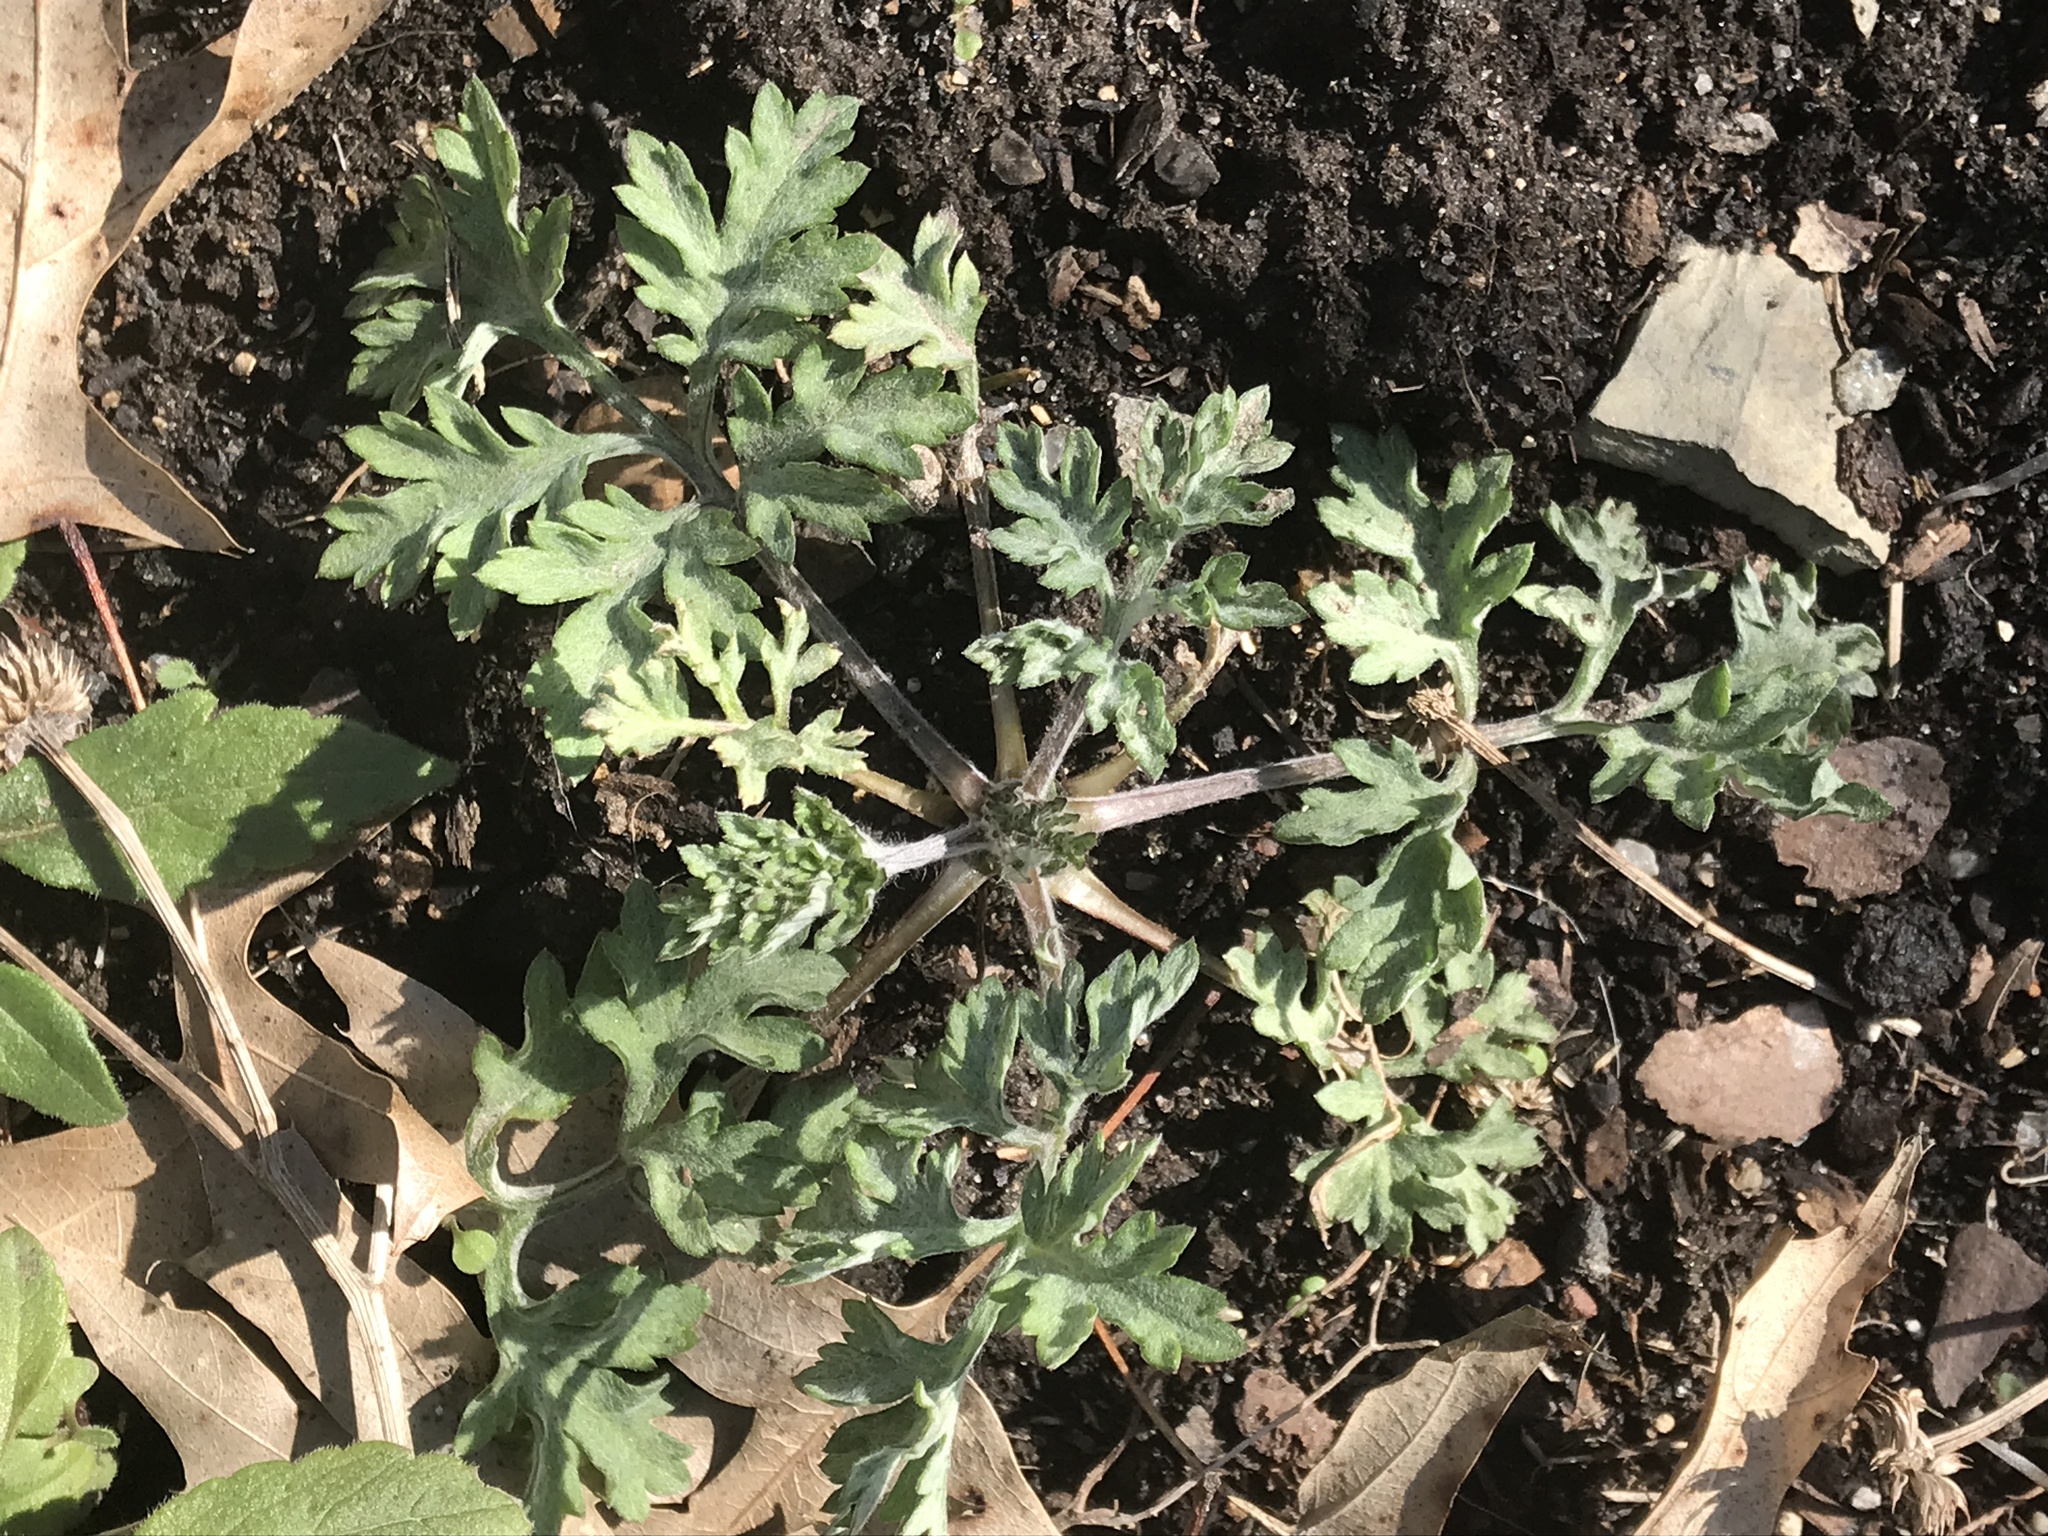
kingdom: Plantae
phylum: Tracheophyta
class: Magnoliopsida
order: Asterales
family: Asteraceae
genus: Artemisia
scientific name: Artemisia vulgaris
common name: Mugwort
